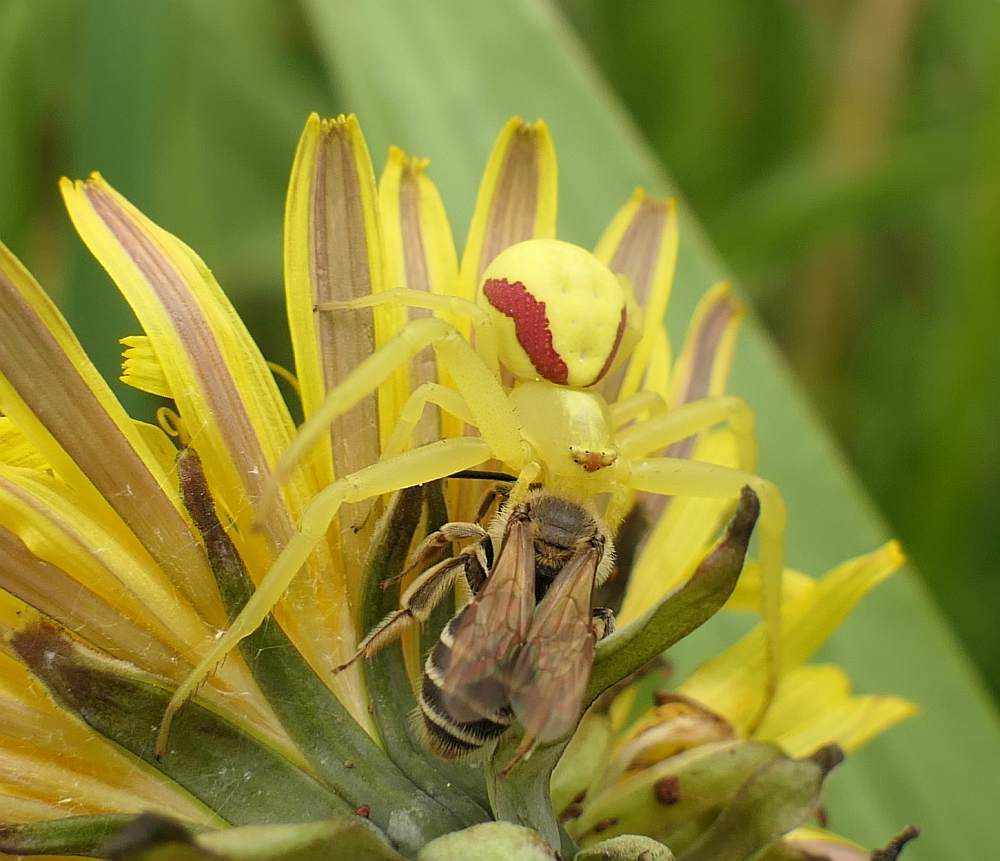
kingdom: Animalia
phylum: Arthropoda
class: Arachnida
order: Araneae
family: Thomisidae
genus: Misumena
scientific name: Misumena vatia
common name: Goldenrod crab spider
